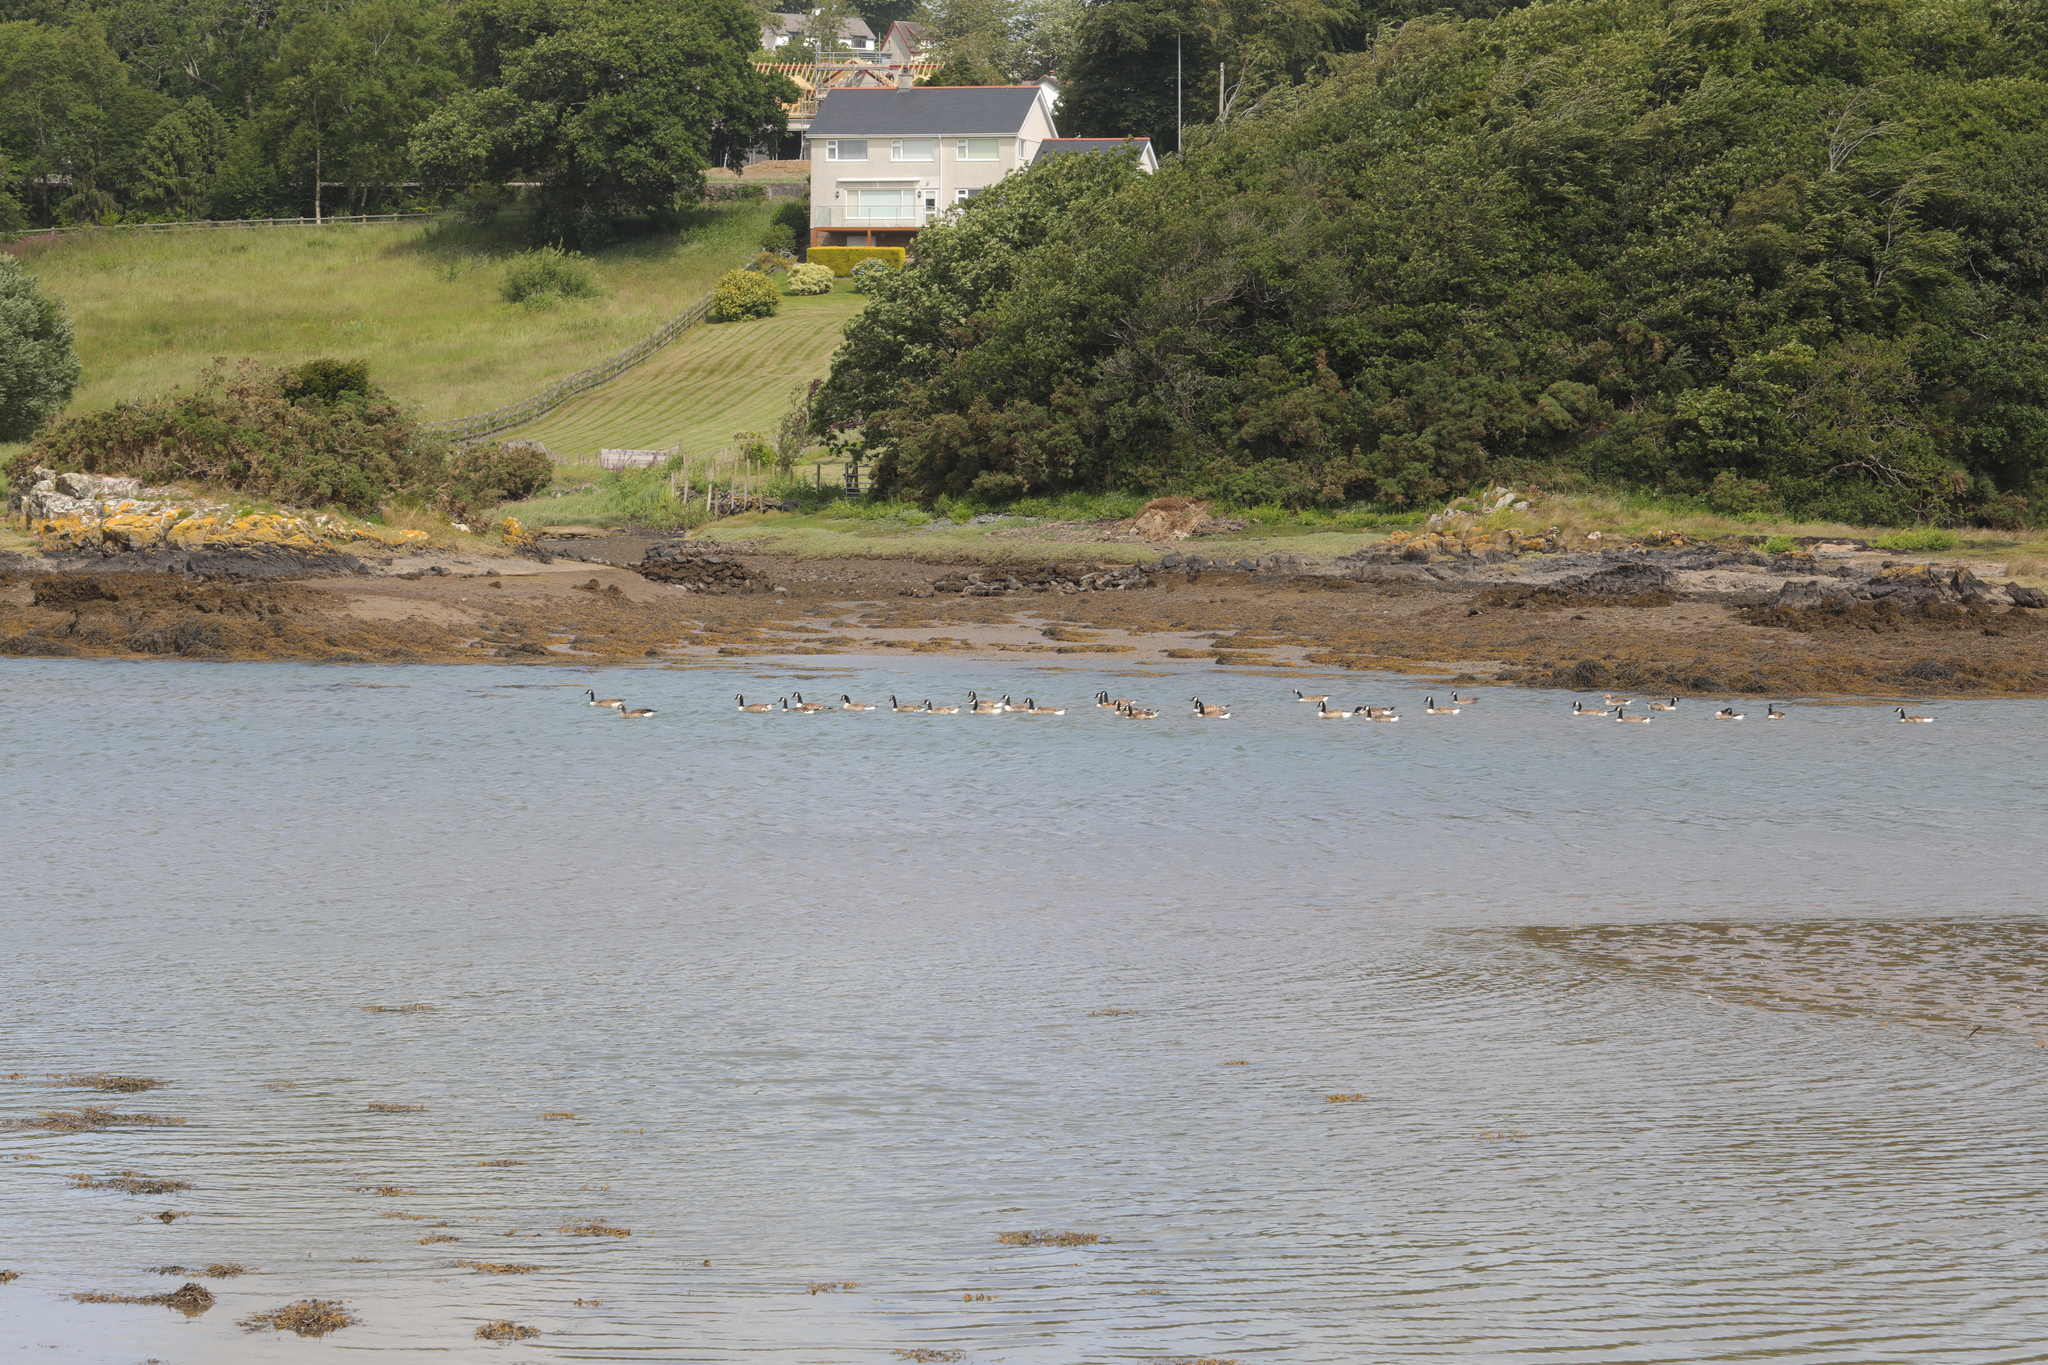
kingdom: Animalia
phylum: Chordata
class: Aves
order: Anseriformes
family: Anatidae
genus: Branta
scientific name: Branta canadensis
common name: Canada goose
